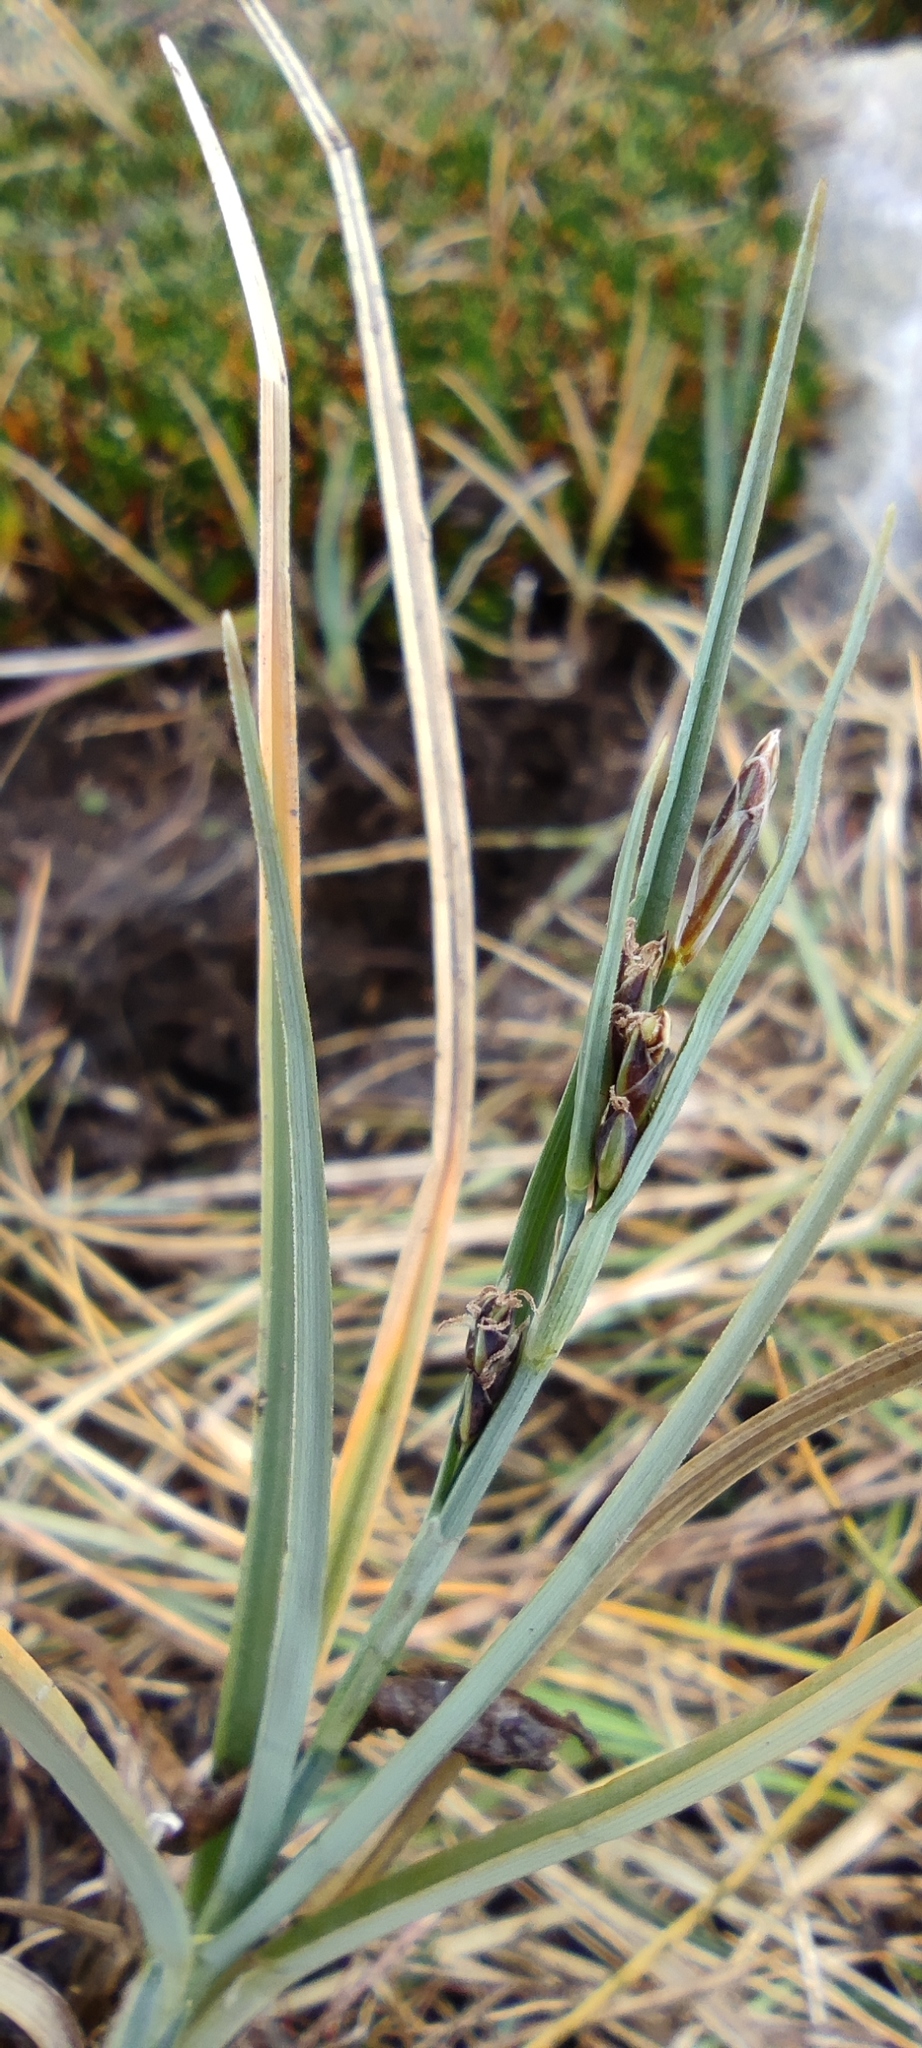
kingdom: Plantae
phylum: Tracheophyta
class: Liliopsida
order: Poales
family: Cyperaceae
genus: Carex
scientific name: Carex livida
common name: Livid sedge
